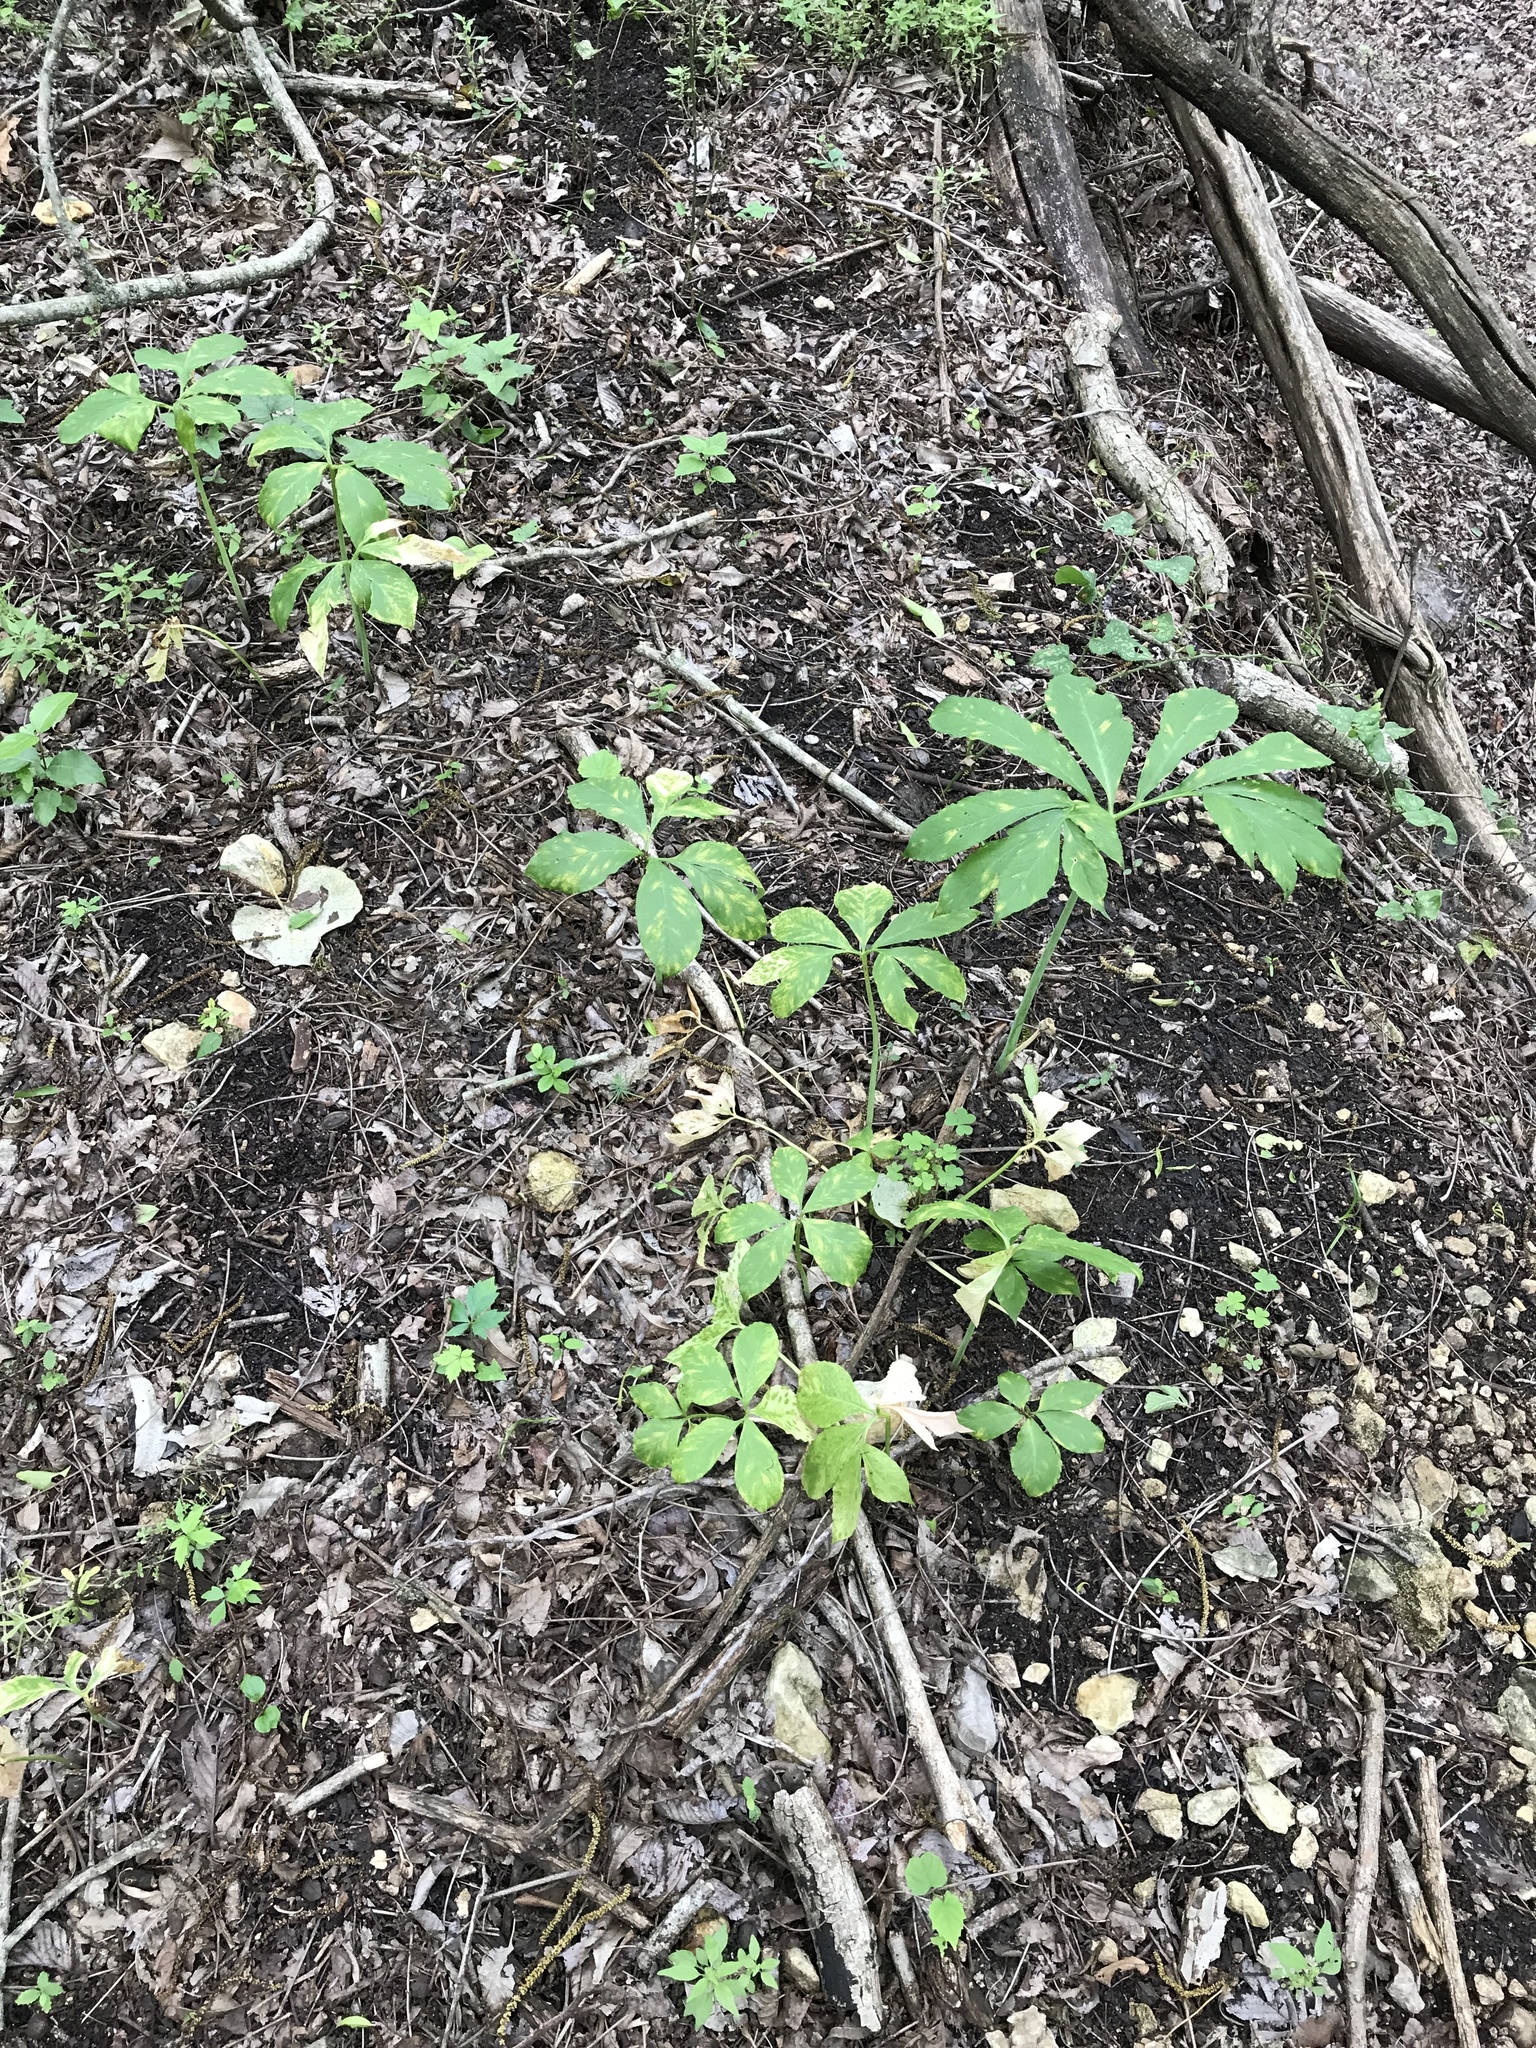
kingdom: Plantae
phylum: Tracheophyta
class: Liliopsida
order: Alismatales
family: Araceae
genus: Arisaema
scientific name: Arisaema dracontium
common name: Dragon-arum
